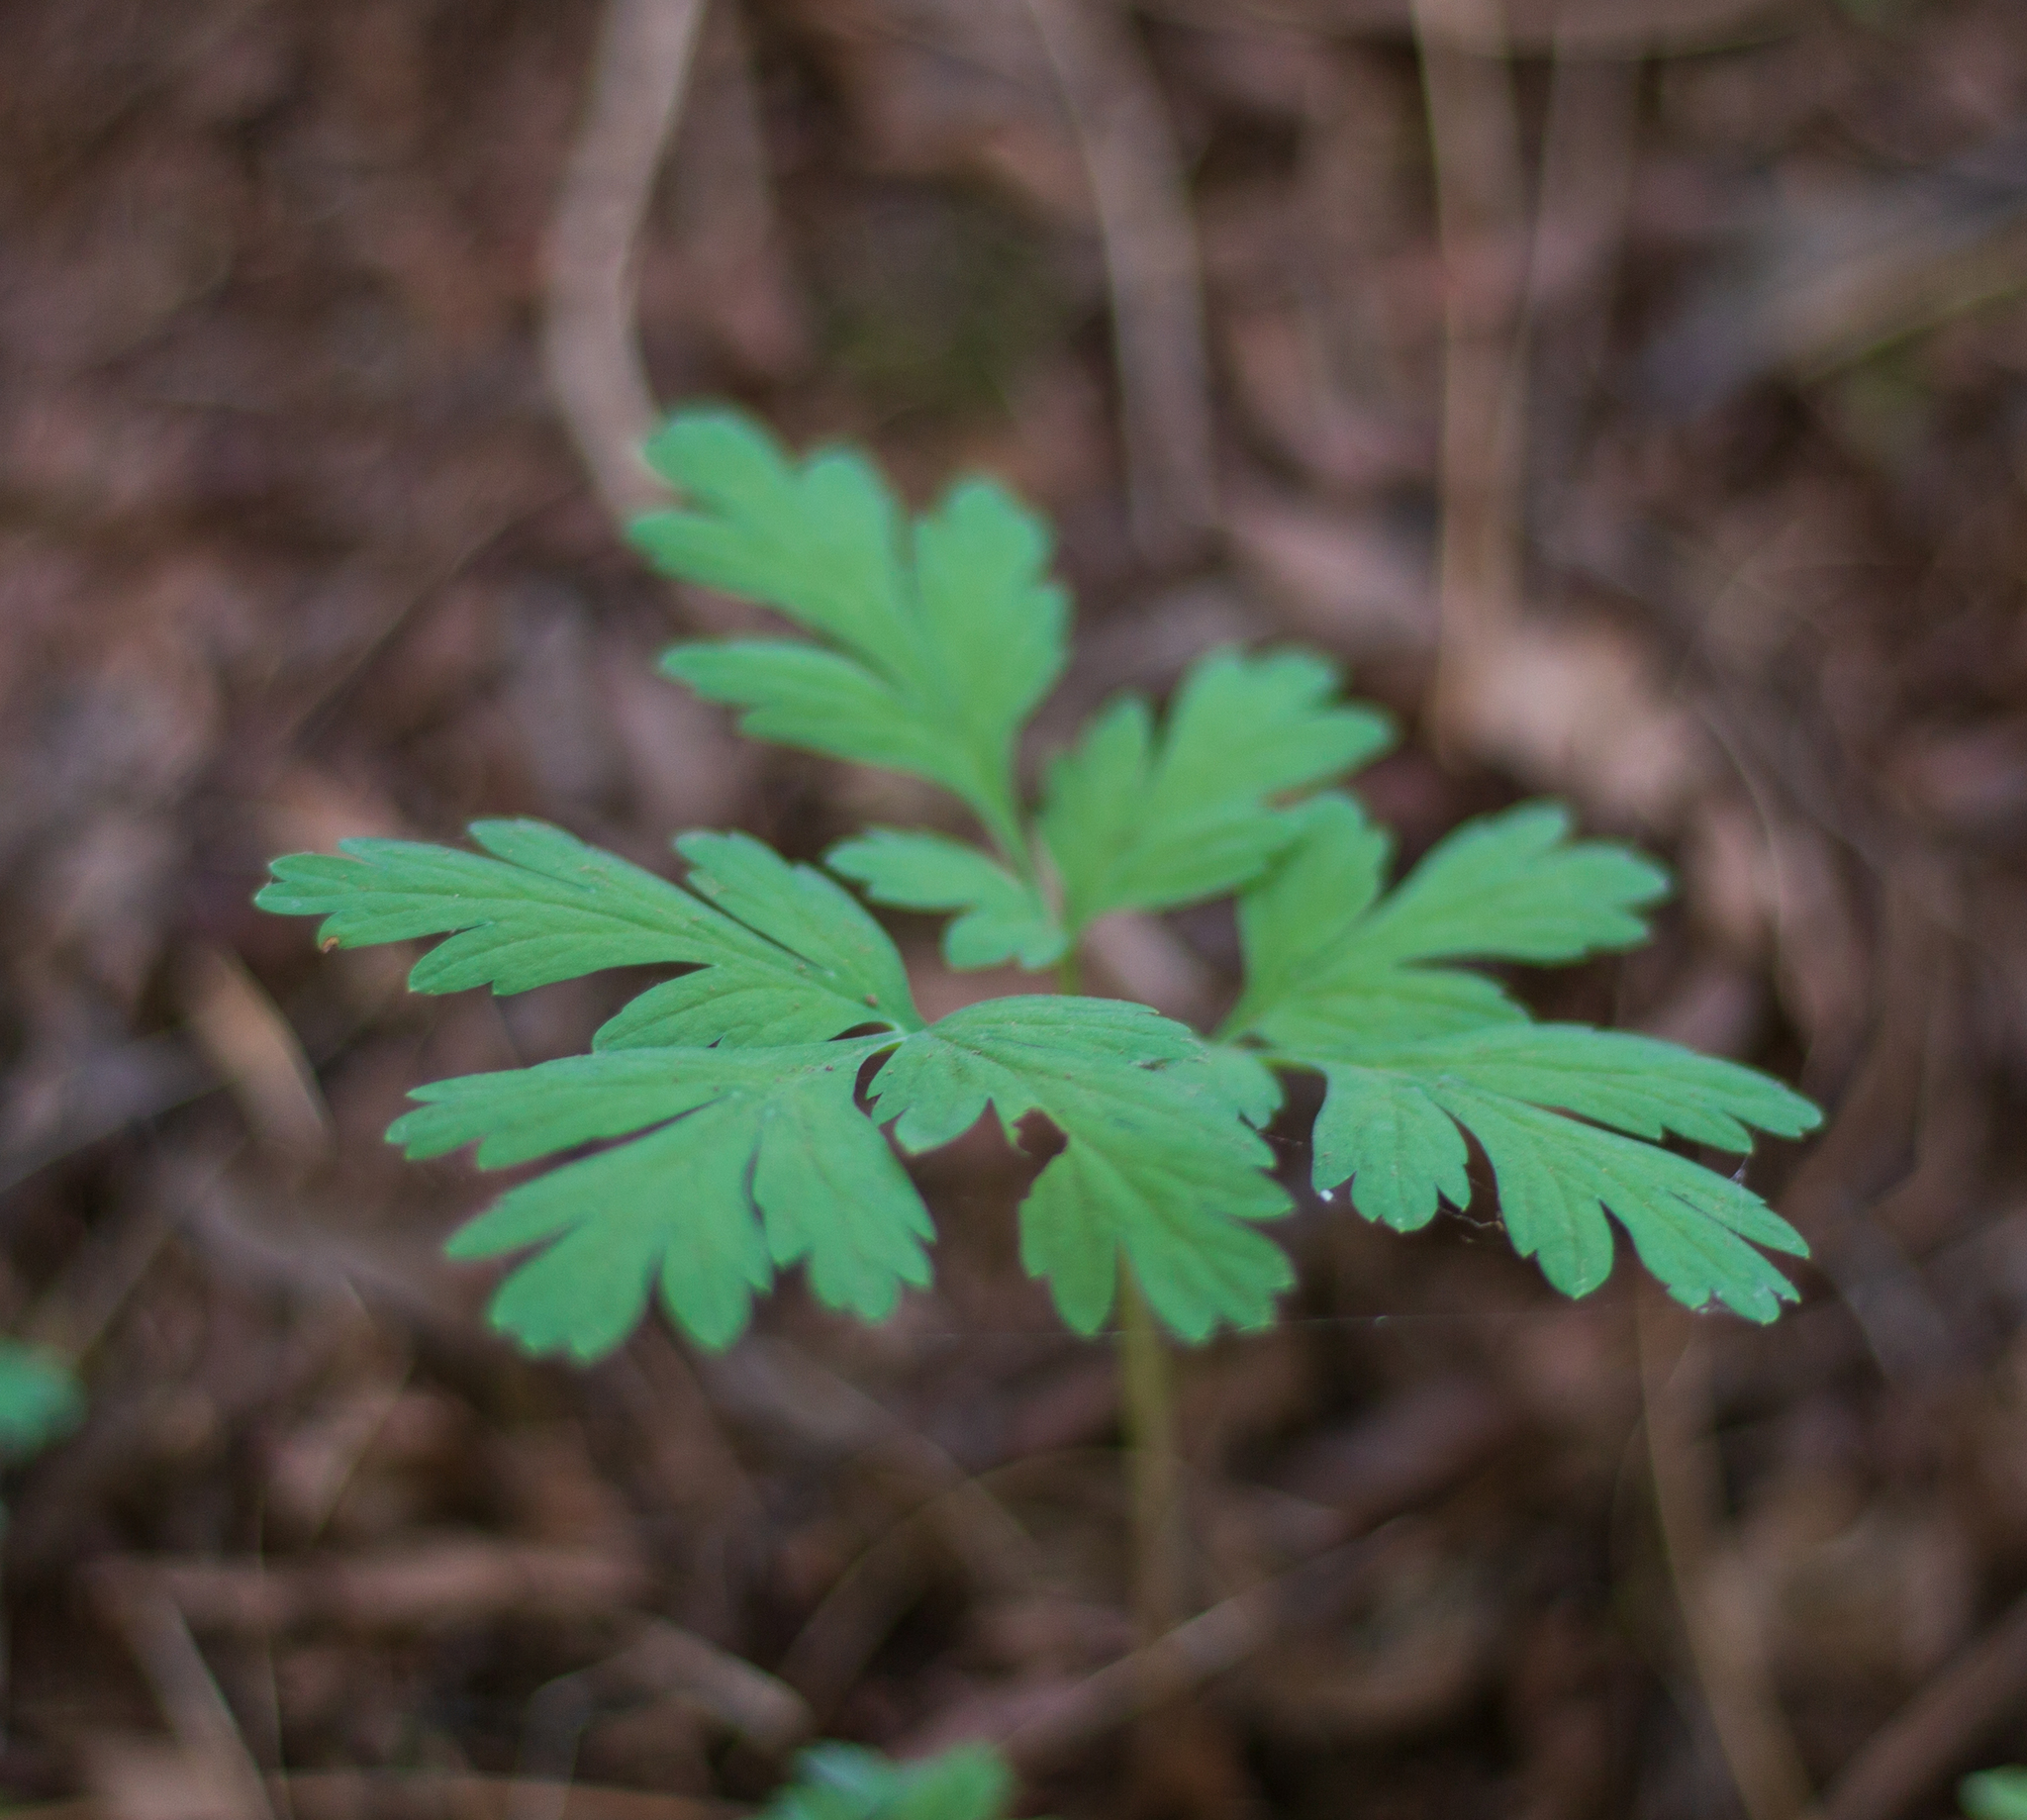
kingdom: Plantae
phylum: Tracheophyta
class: Magnoliopsida
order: Ranunculales
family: Papaveraceae
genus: Dicentra
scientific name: Dicentra formosa
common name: Bleeding-heart
